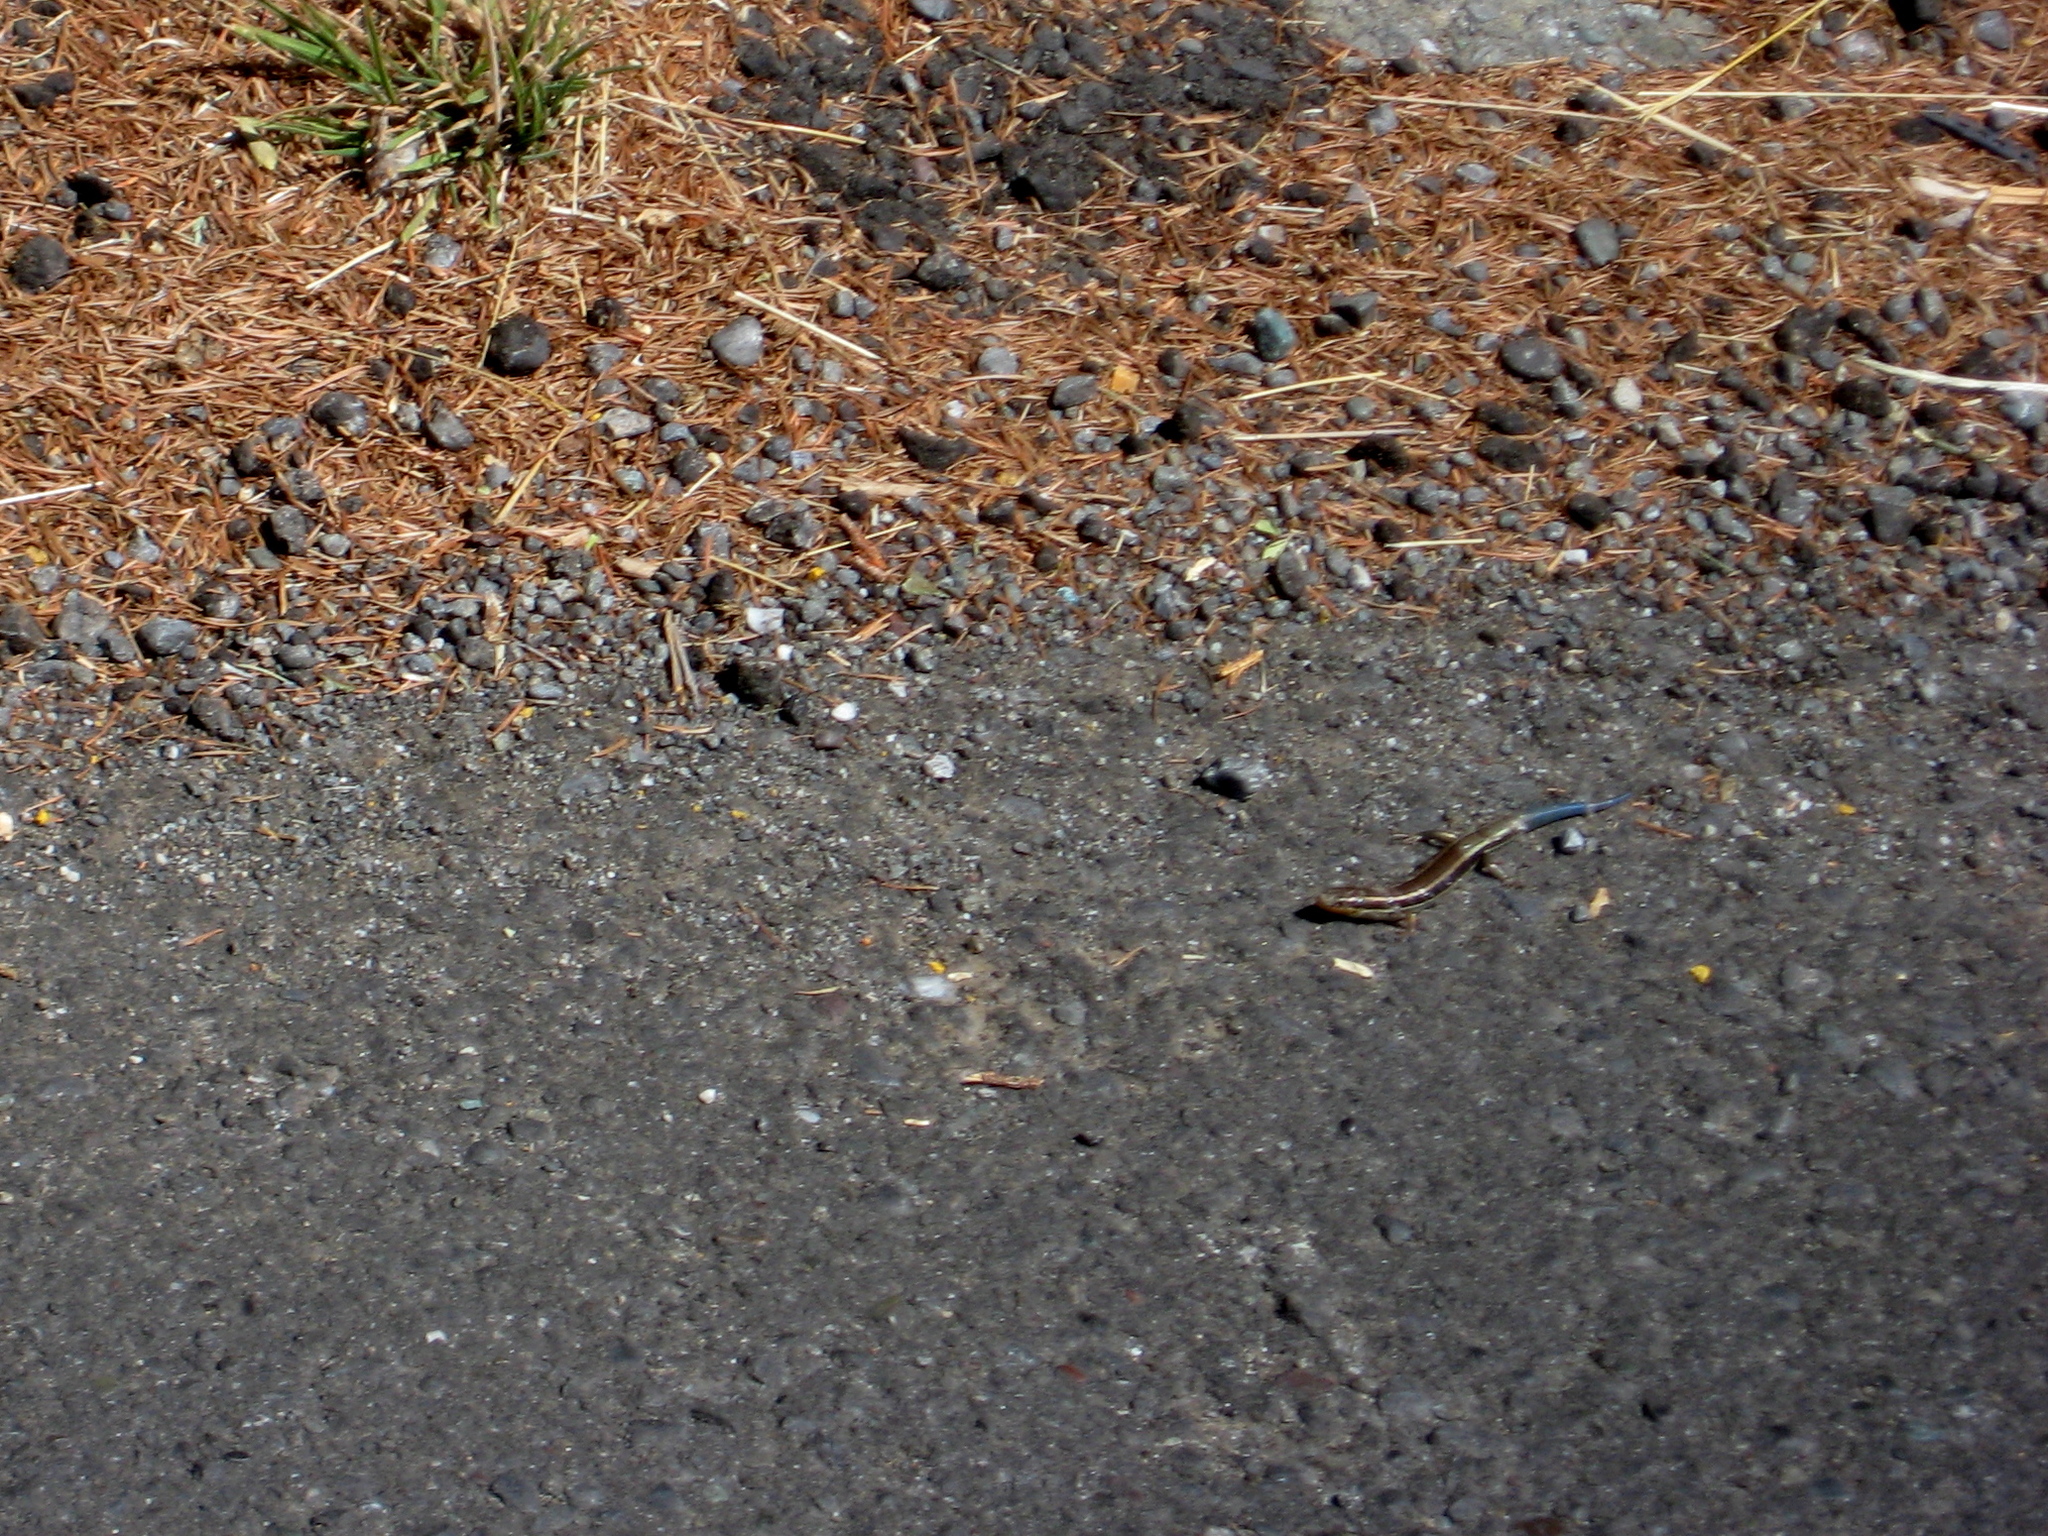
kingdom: Animalia
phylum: Chordata
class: Squamata
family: Scincidae
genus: Plestiodon
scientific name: Plestiodon skiltonianus
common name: Coronado island skink [interparietalis]
